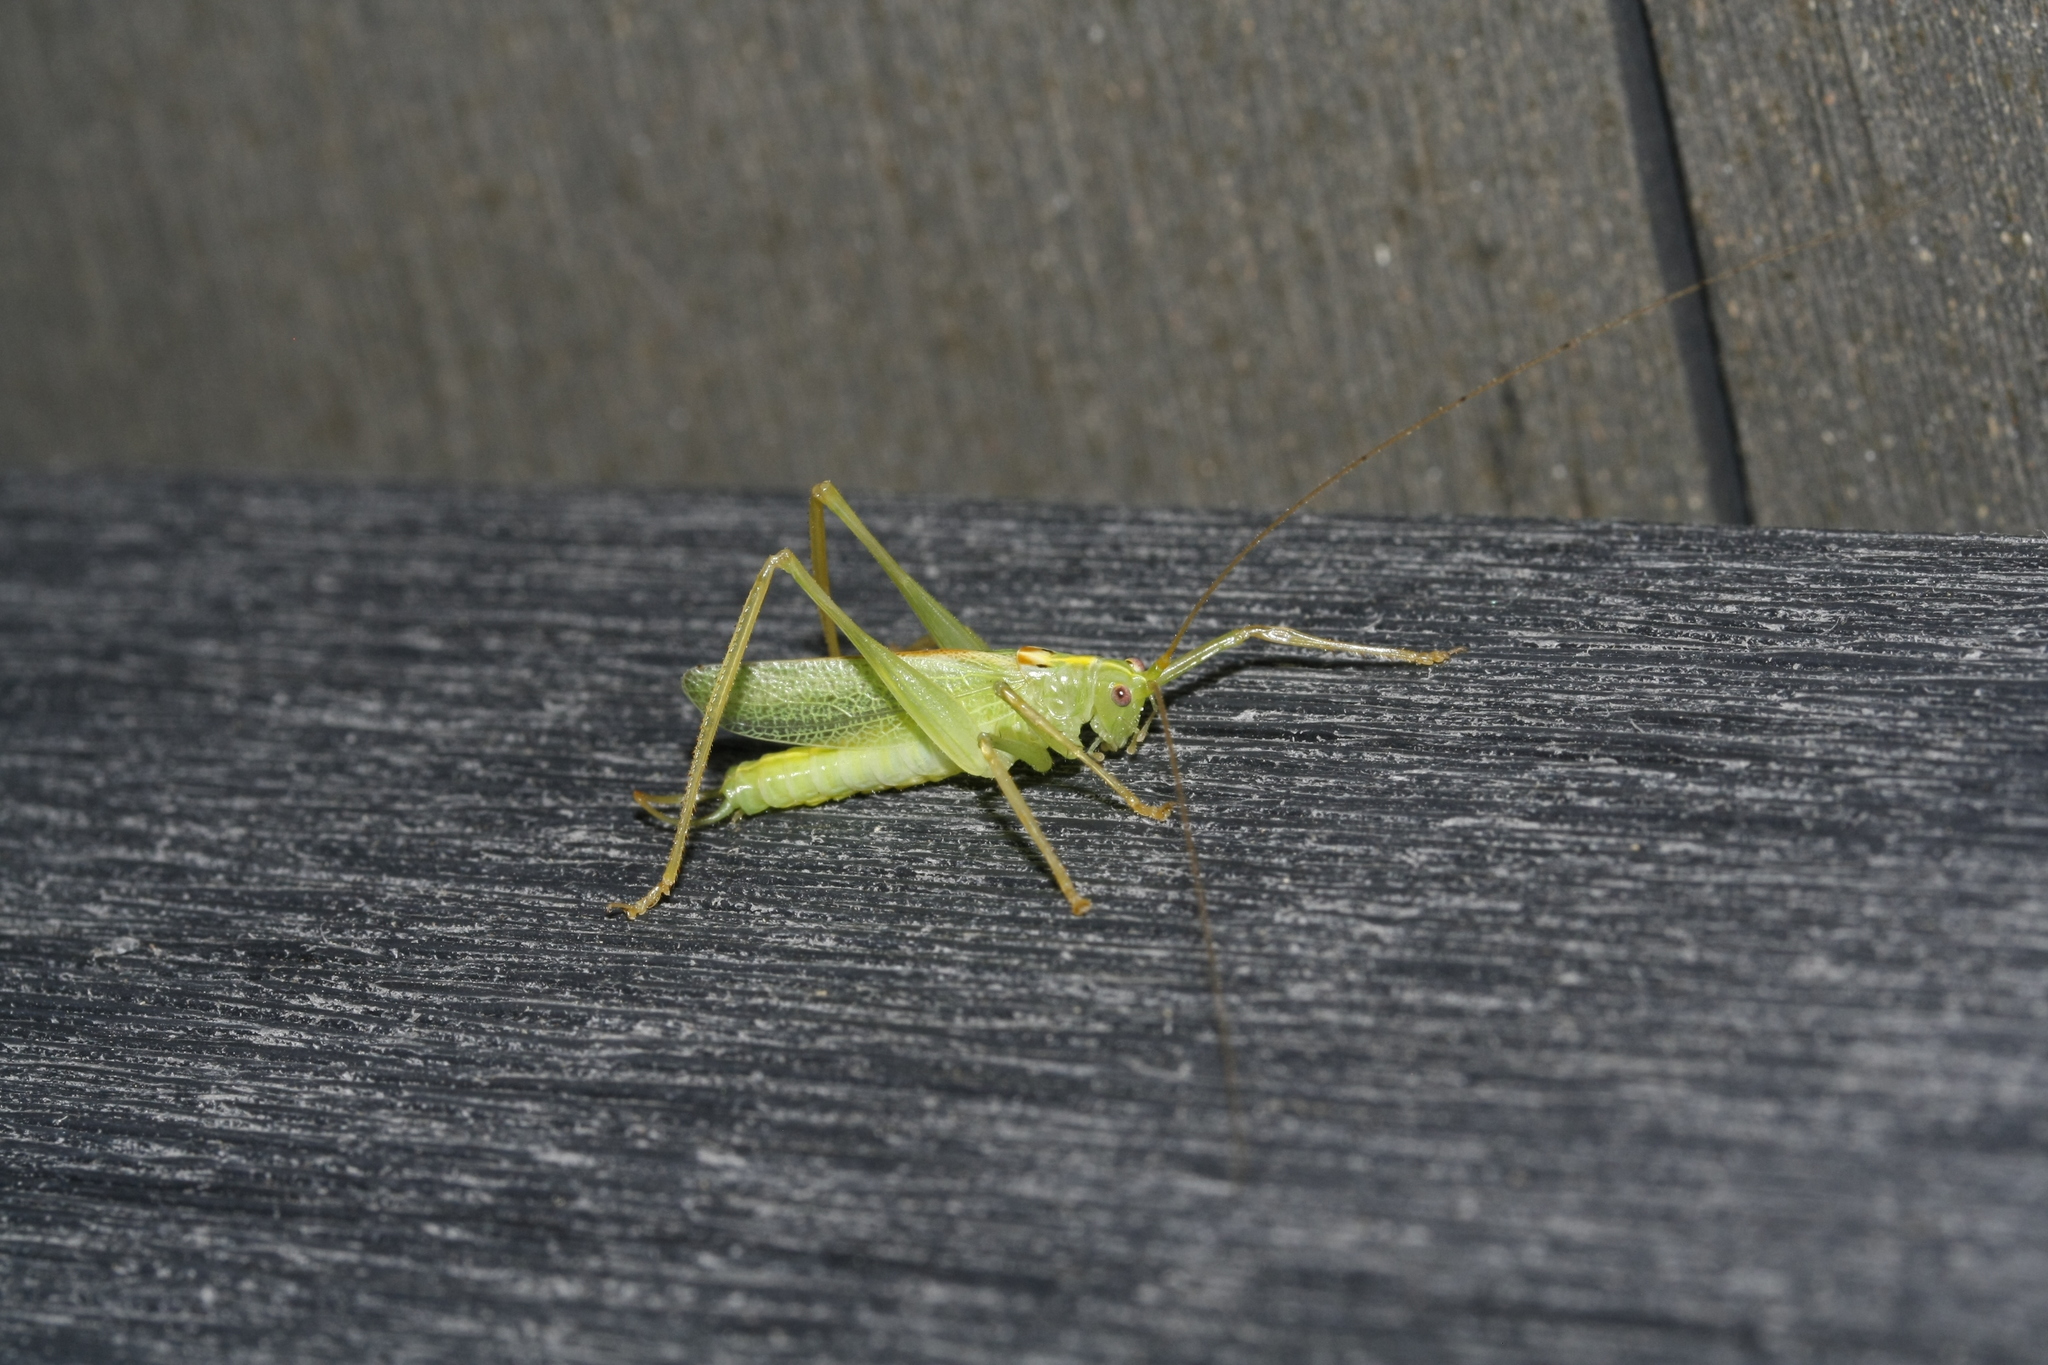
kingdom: Animalia
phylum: Arthropoda
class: Insecta
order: Orthoptera
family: Tettigoniidae
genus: Meconema
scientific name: Meconema thalassinum
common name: Oak bush-cricket
